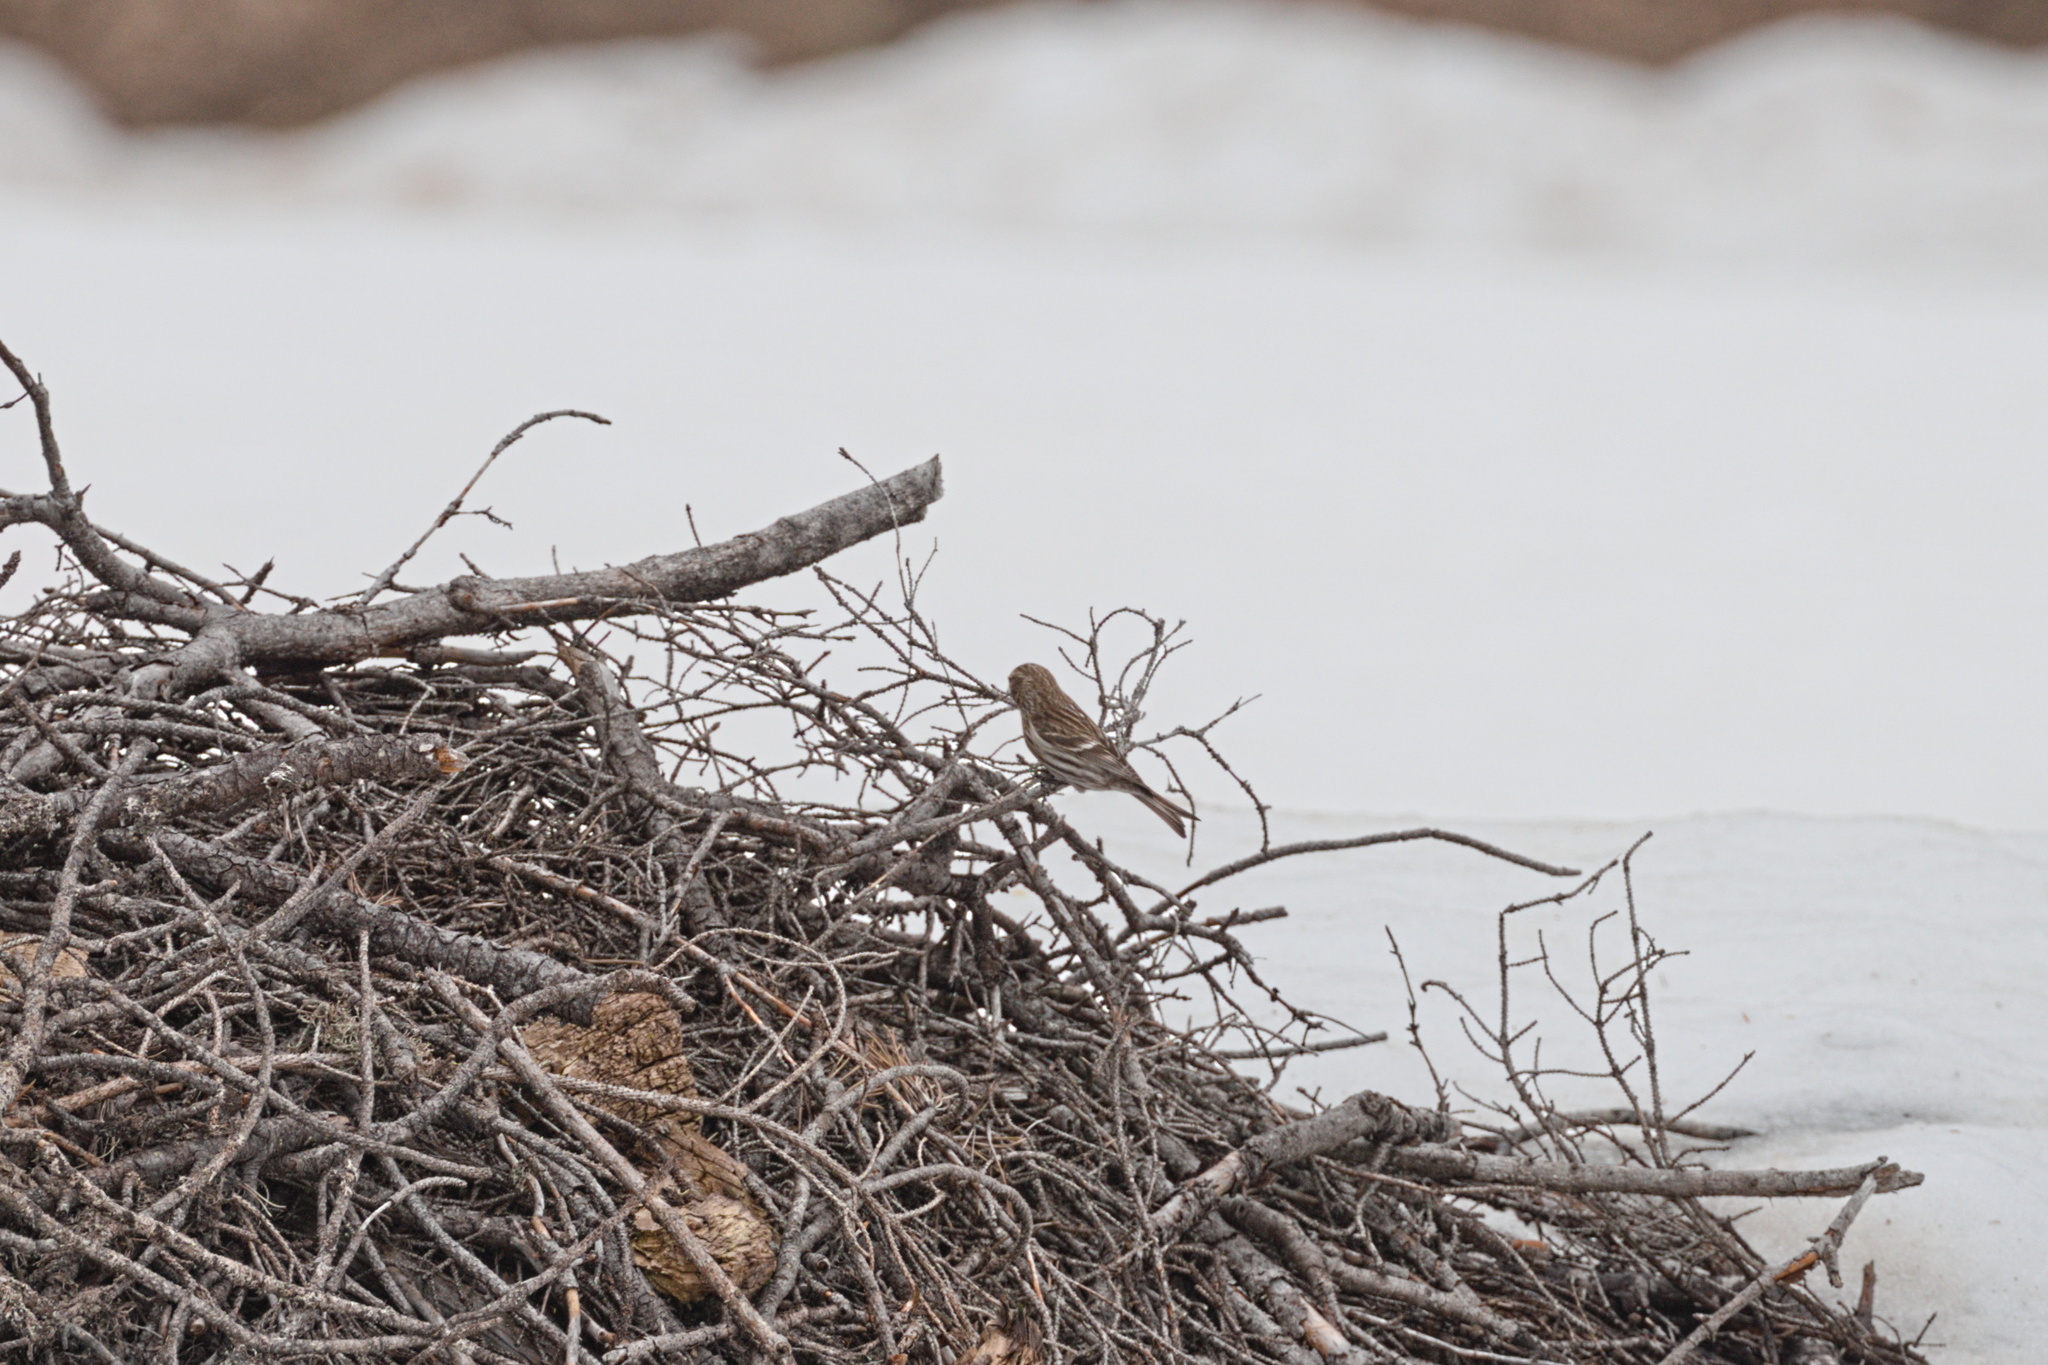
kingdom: Animalia
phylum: Chordata
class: Aves
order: Passeriformes
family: Fringillidae
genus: Acanthis
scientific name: Acanthis flammea
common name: Common redpoll
